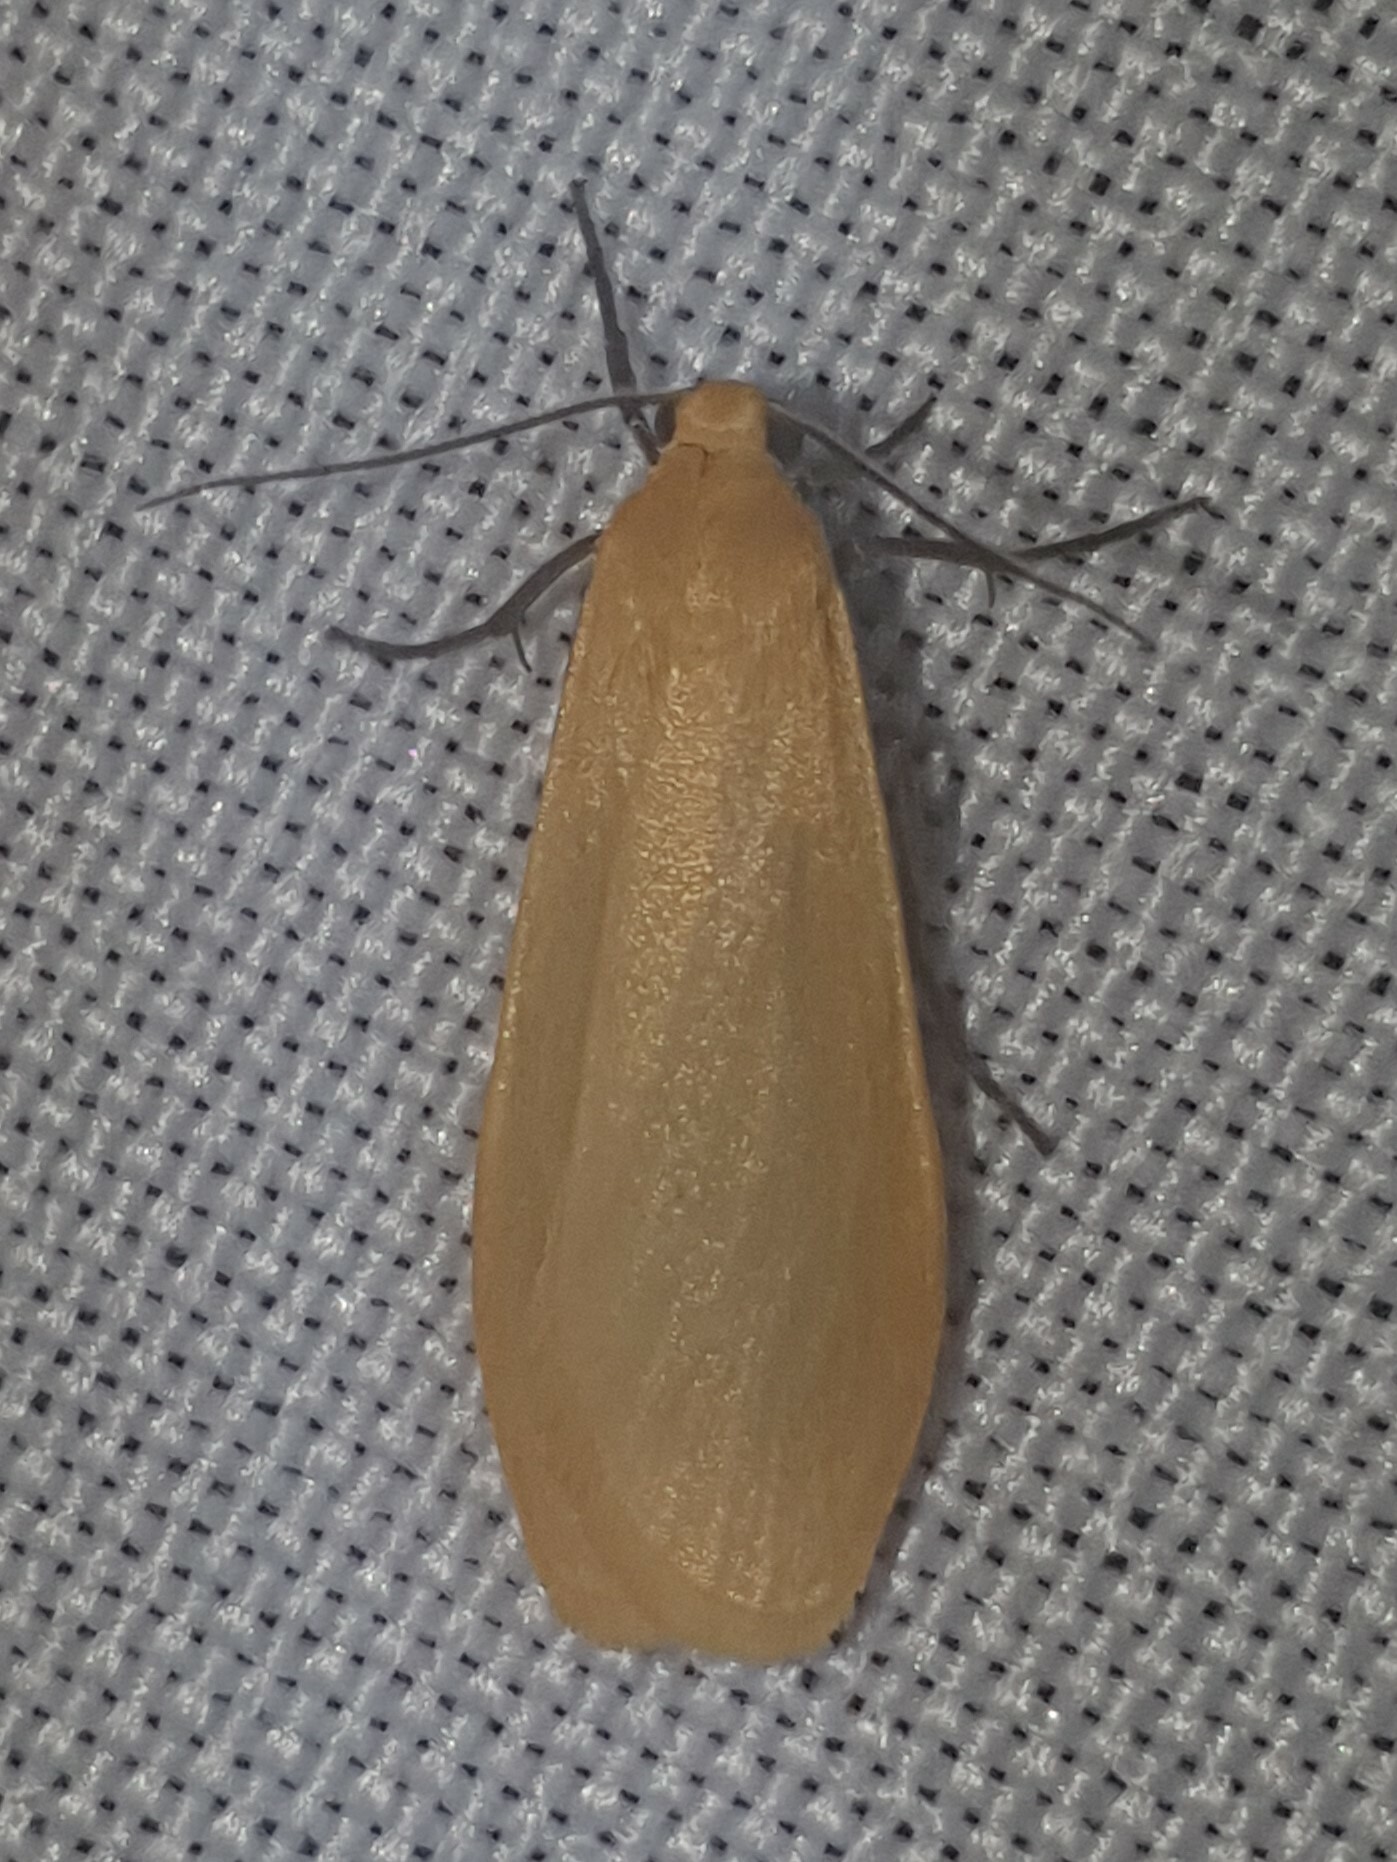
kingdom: Animalia
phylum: Arthropoda
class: Insecta
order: Lepidoptera
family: Erebidae
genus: Wittia
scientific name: Wittia sororcula
